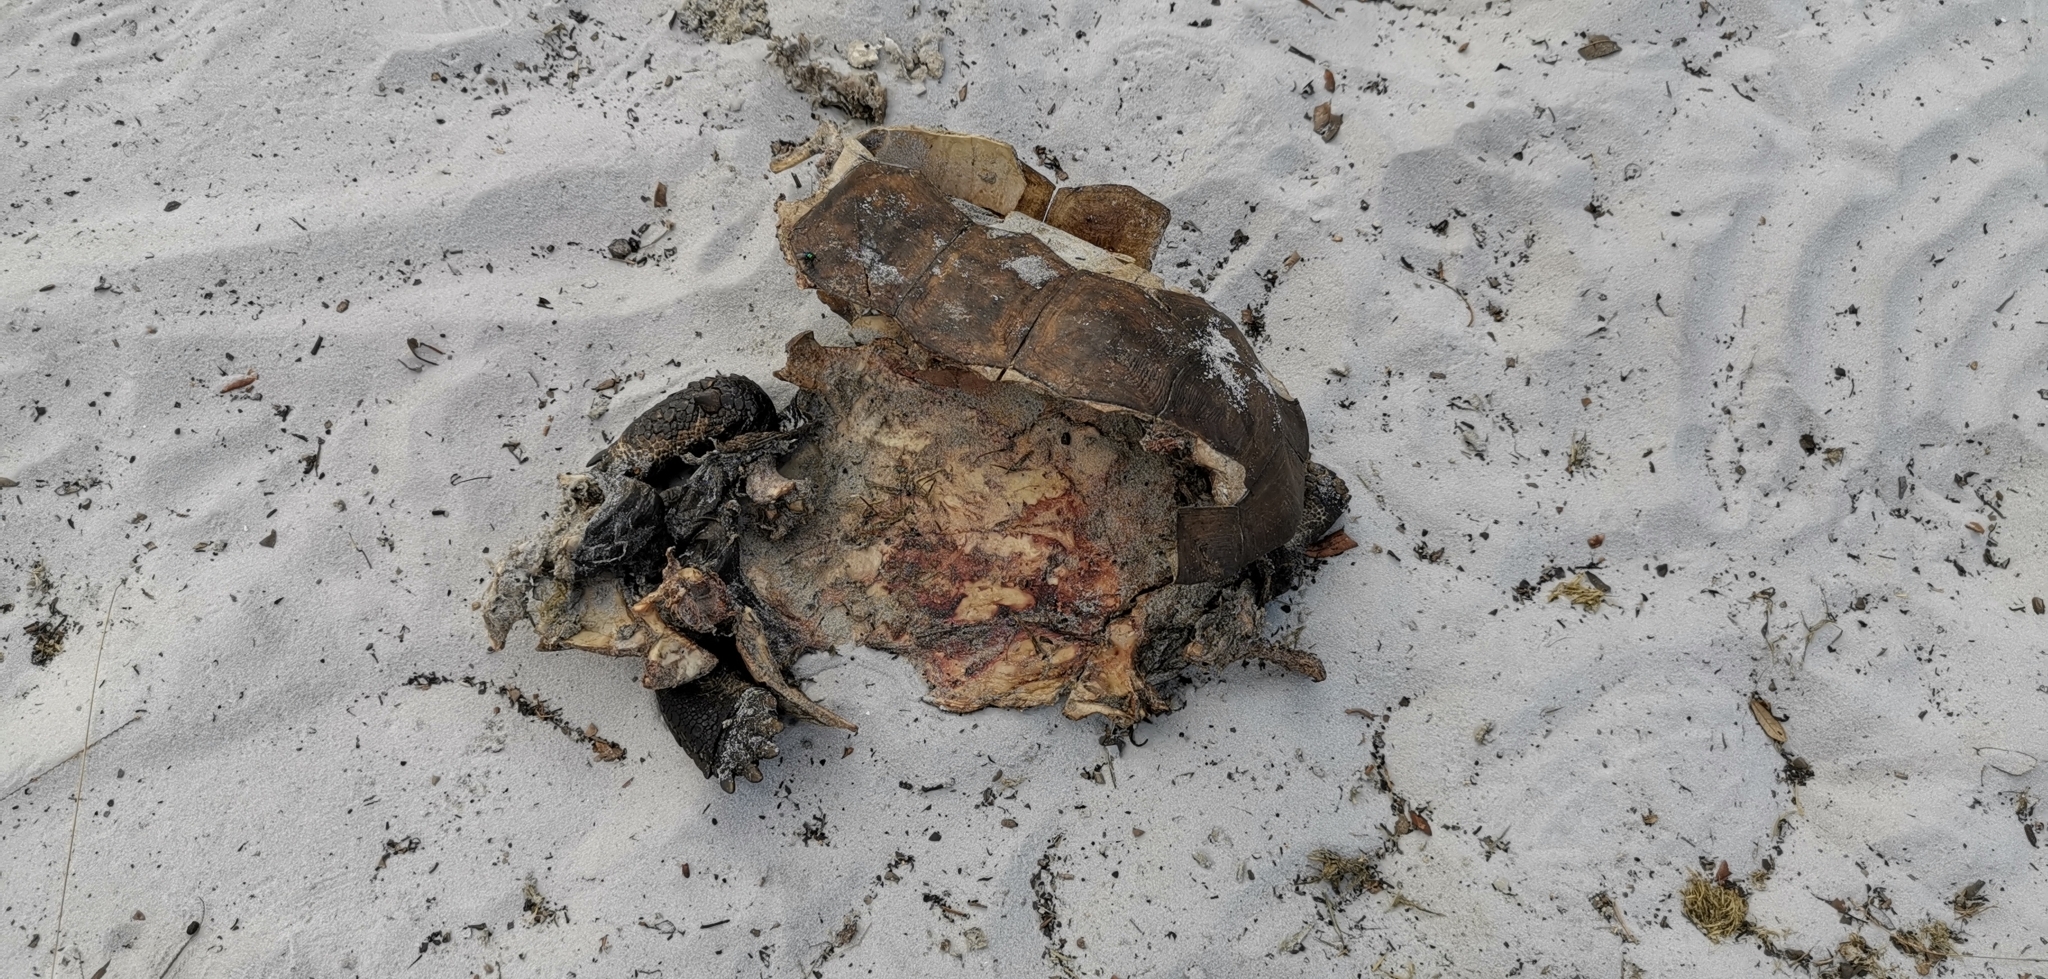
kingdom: Animalia
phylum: Chordata
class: Testudines
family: Testudinidae
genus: Gopherus
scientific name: Gopherus polyphemus
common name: Florida gopher tortoise
